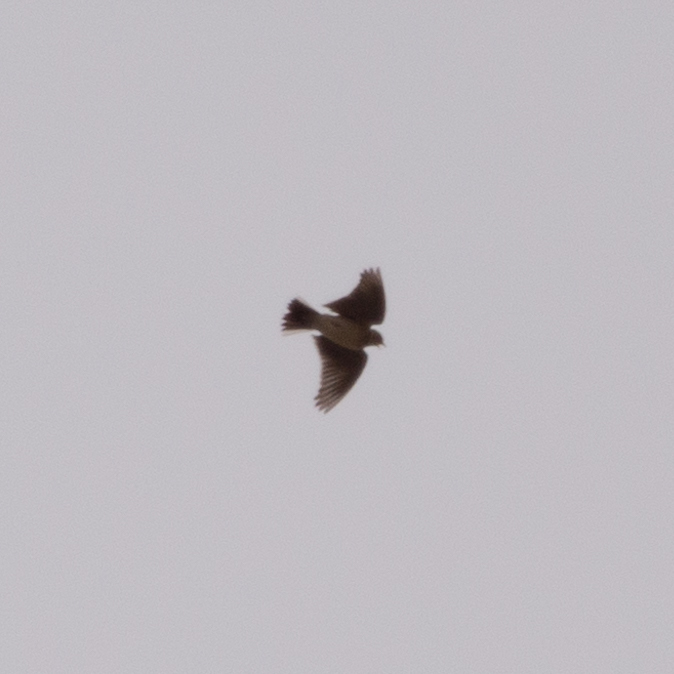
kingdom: Animalia
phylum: Chordata
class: Aves
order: Passeriformes
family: Alaudidae
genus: Alauda
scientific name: Alauda arvensis
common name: Eurasian skylark
